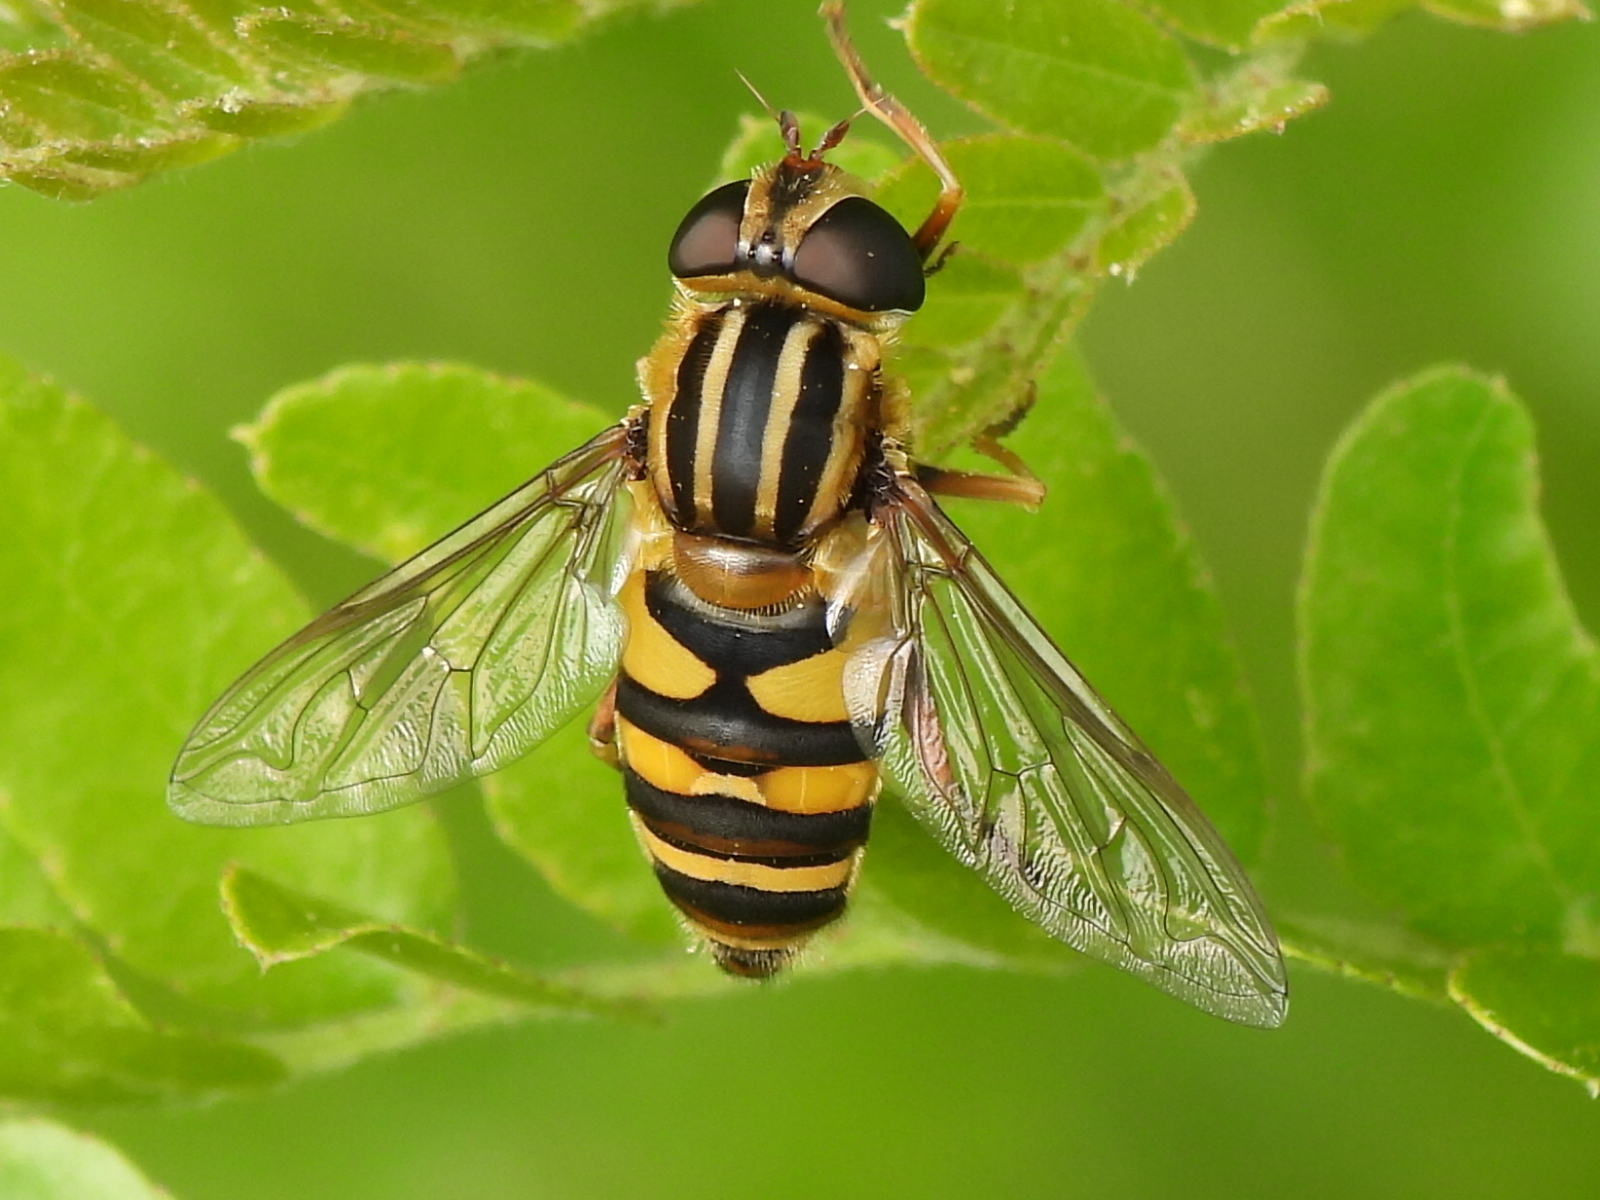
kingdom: Animalia
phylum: Arthropoda
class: Insecta
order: Diptera
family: Syrphidae
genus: Helophilus
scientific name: Helophilus fasciatus
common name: Narrow-headed marsh fly
